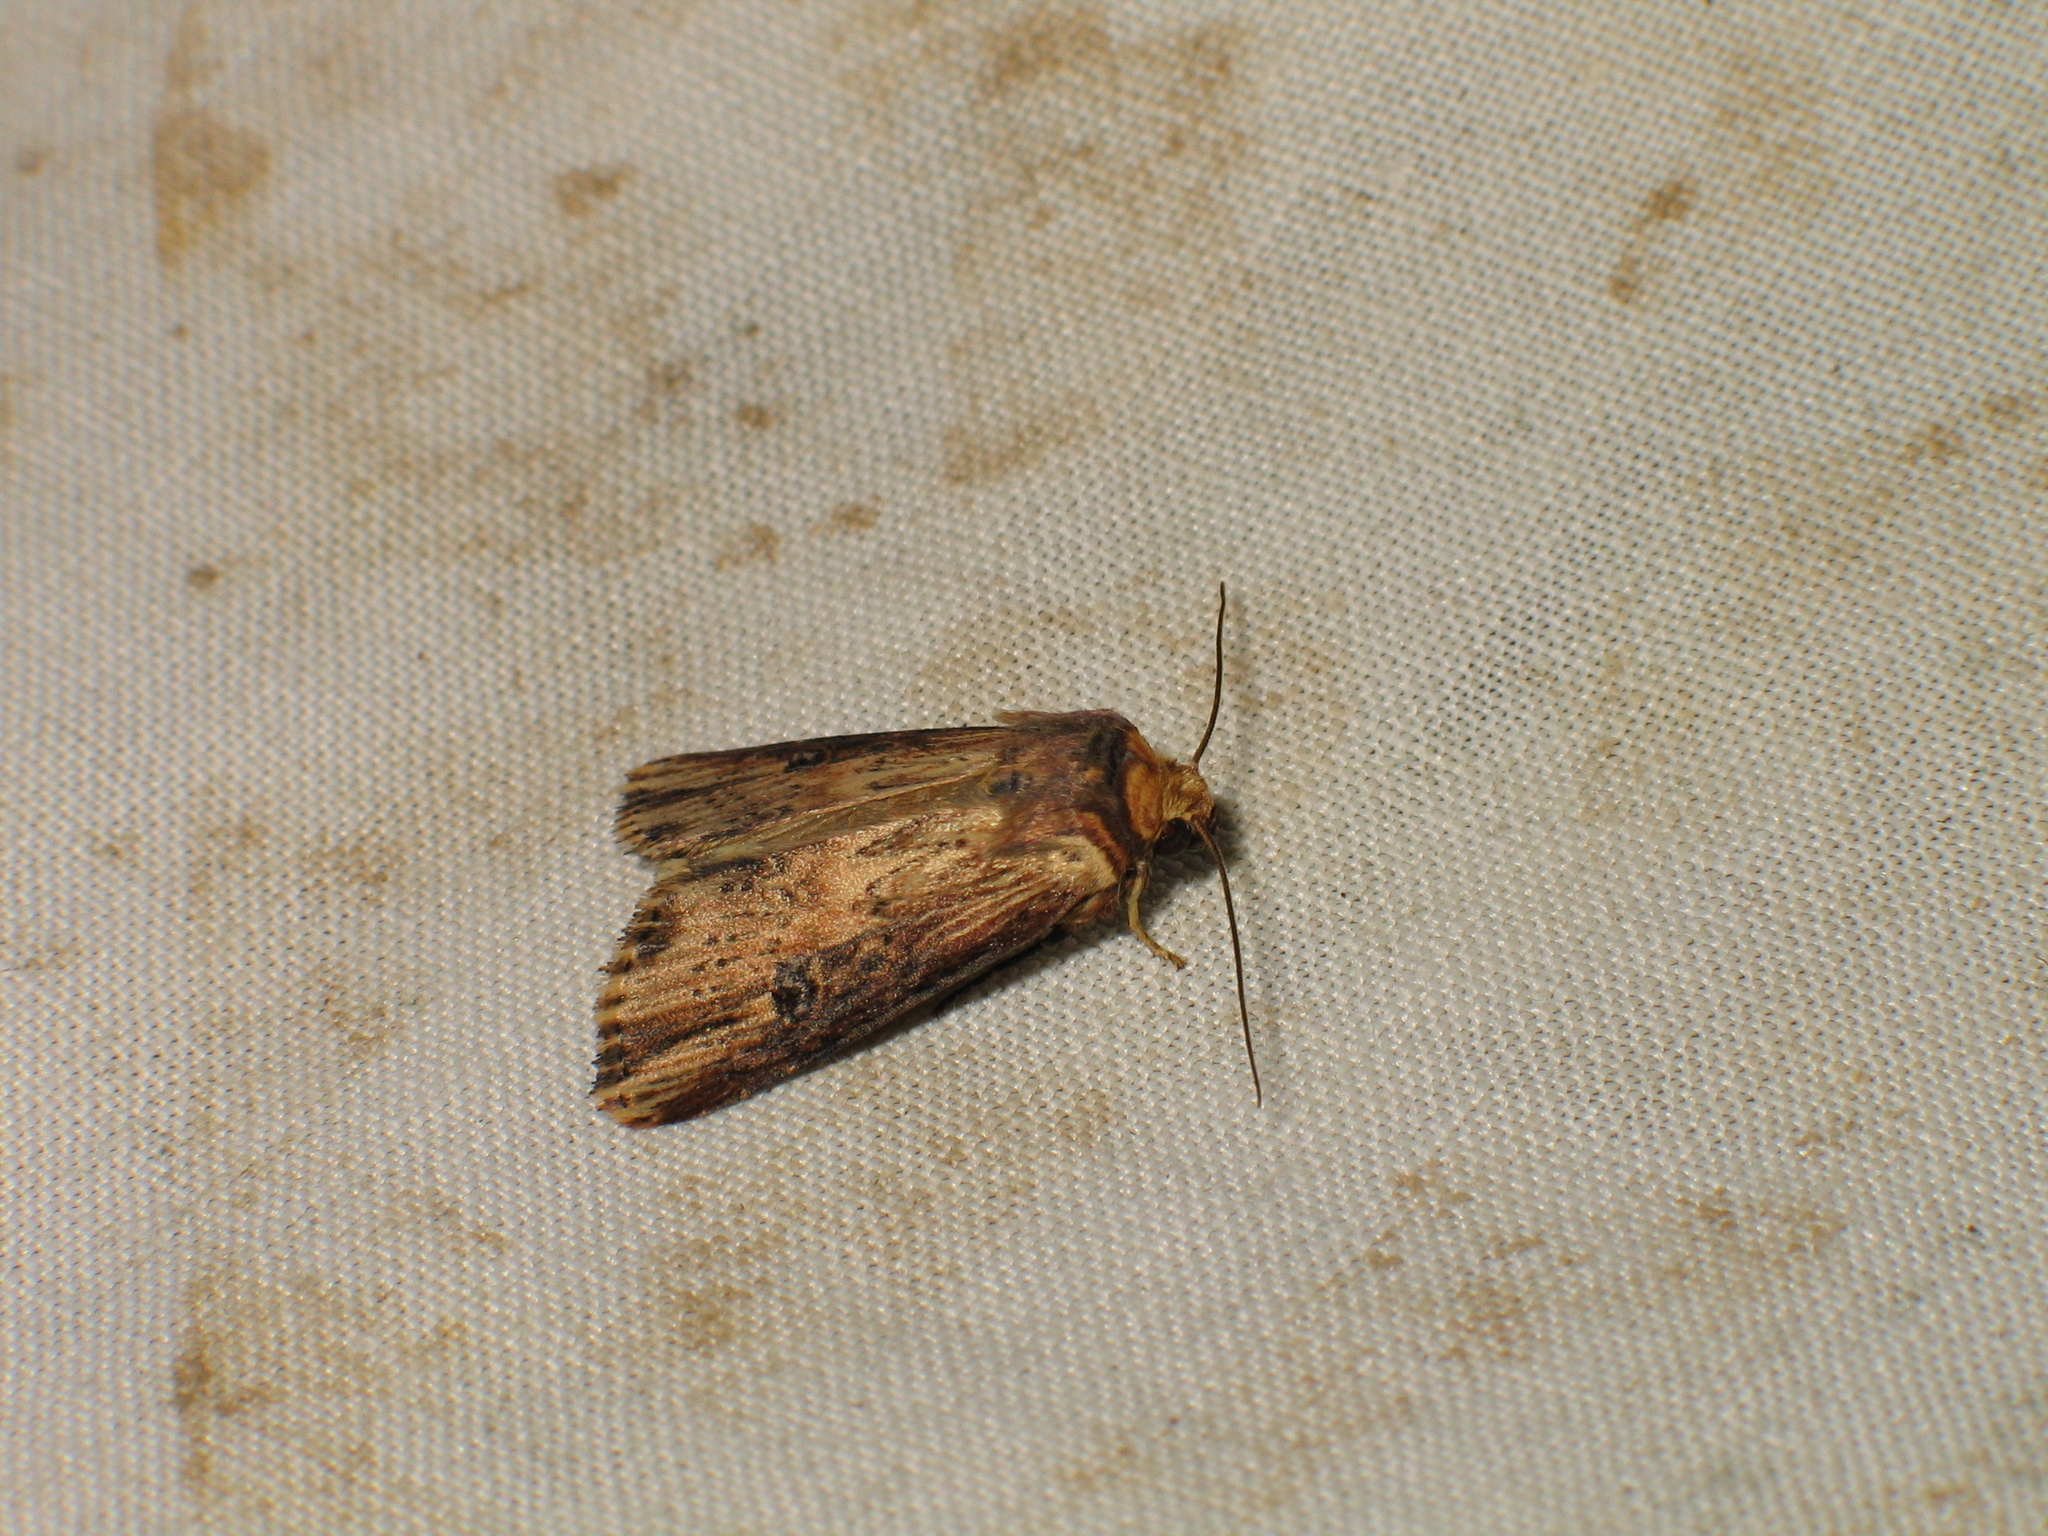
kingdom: Animalia
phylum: Arthropoda
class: Insecta
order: Lepidoptera
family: Noctuidae
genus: Axylia
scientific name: Axylia putris
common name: Flame
